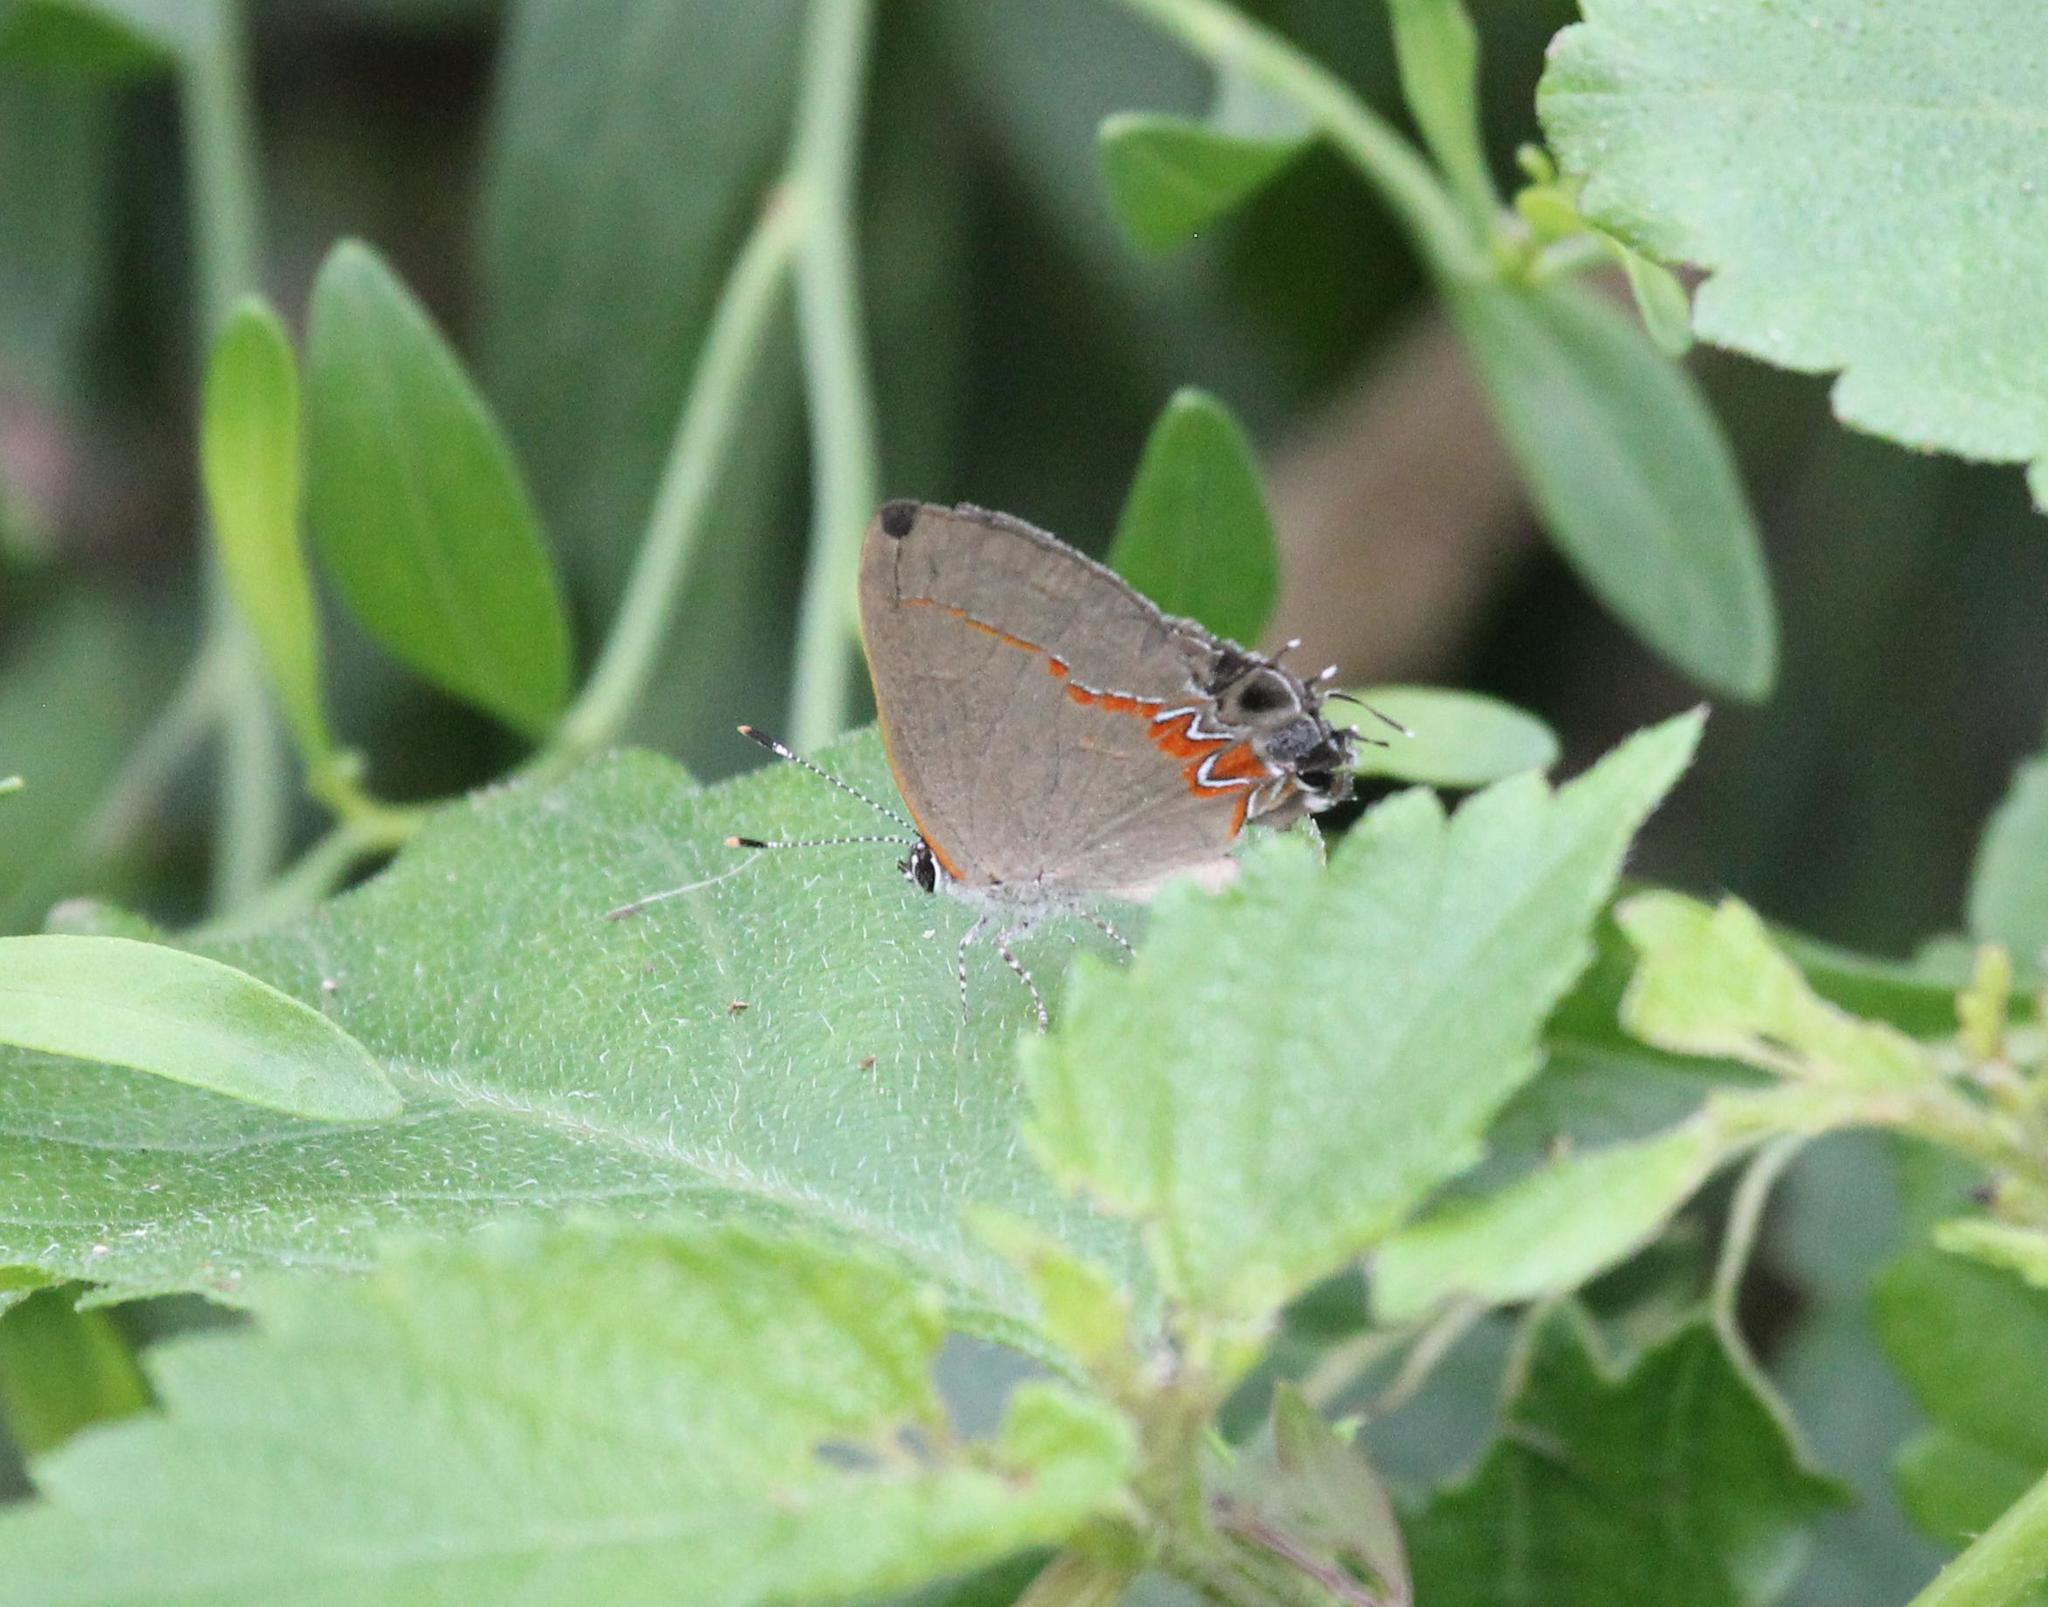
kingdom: Animalia
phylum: Arthropoda
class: Insecta
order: Lepidoptera
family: Lycaenidae
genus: Calycopis
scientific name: Calycopis cecrops
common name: Red-banded hairstreak
